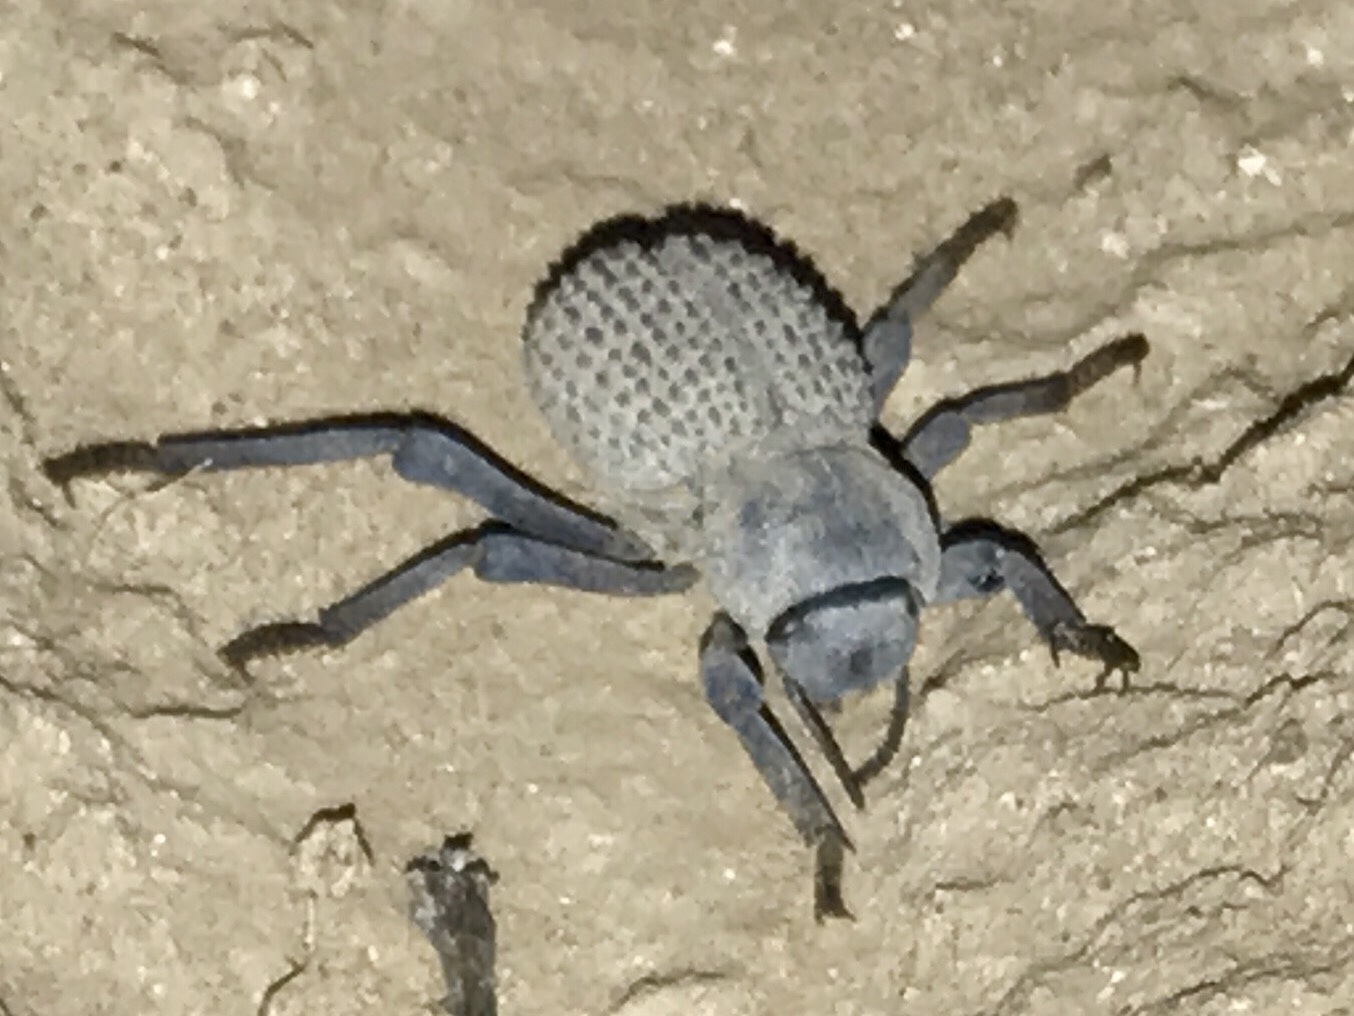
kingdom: Animalia
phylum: Arthropoda
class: Insecta
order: Coleoptera
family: Tenebrionidae
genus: Asbolus
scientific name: Asbolus verrucosus
